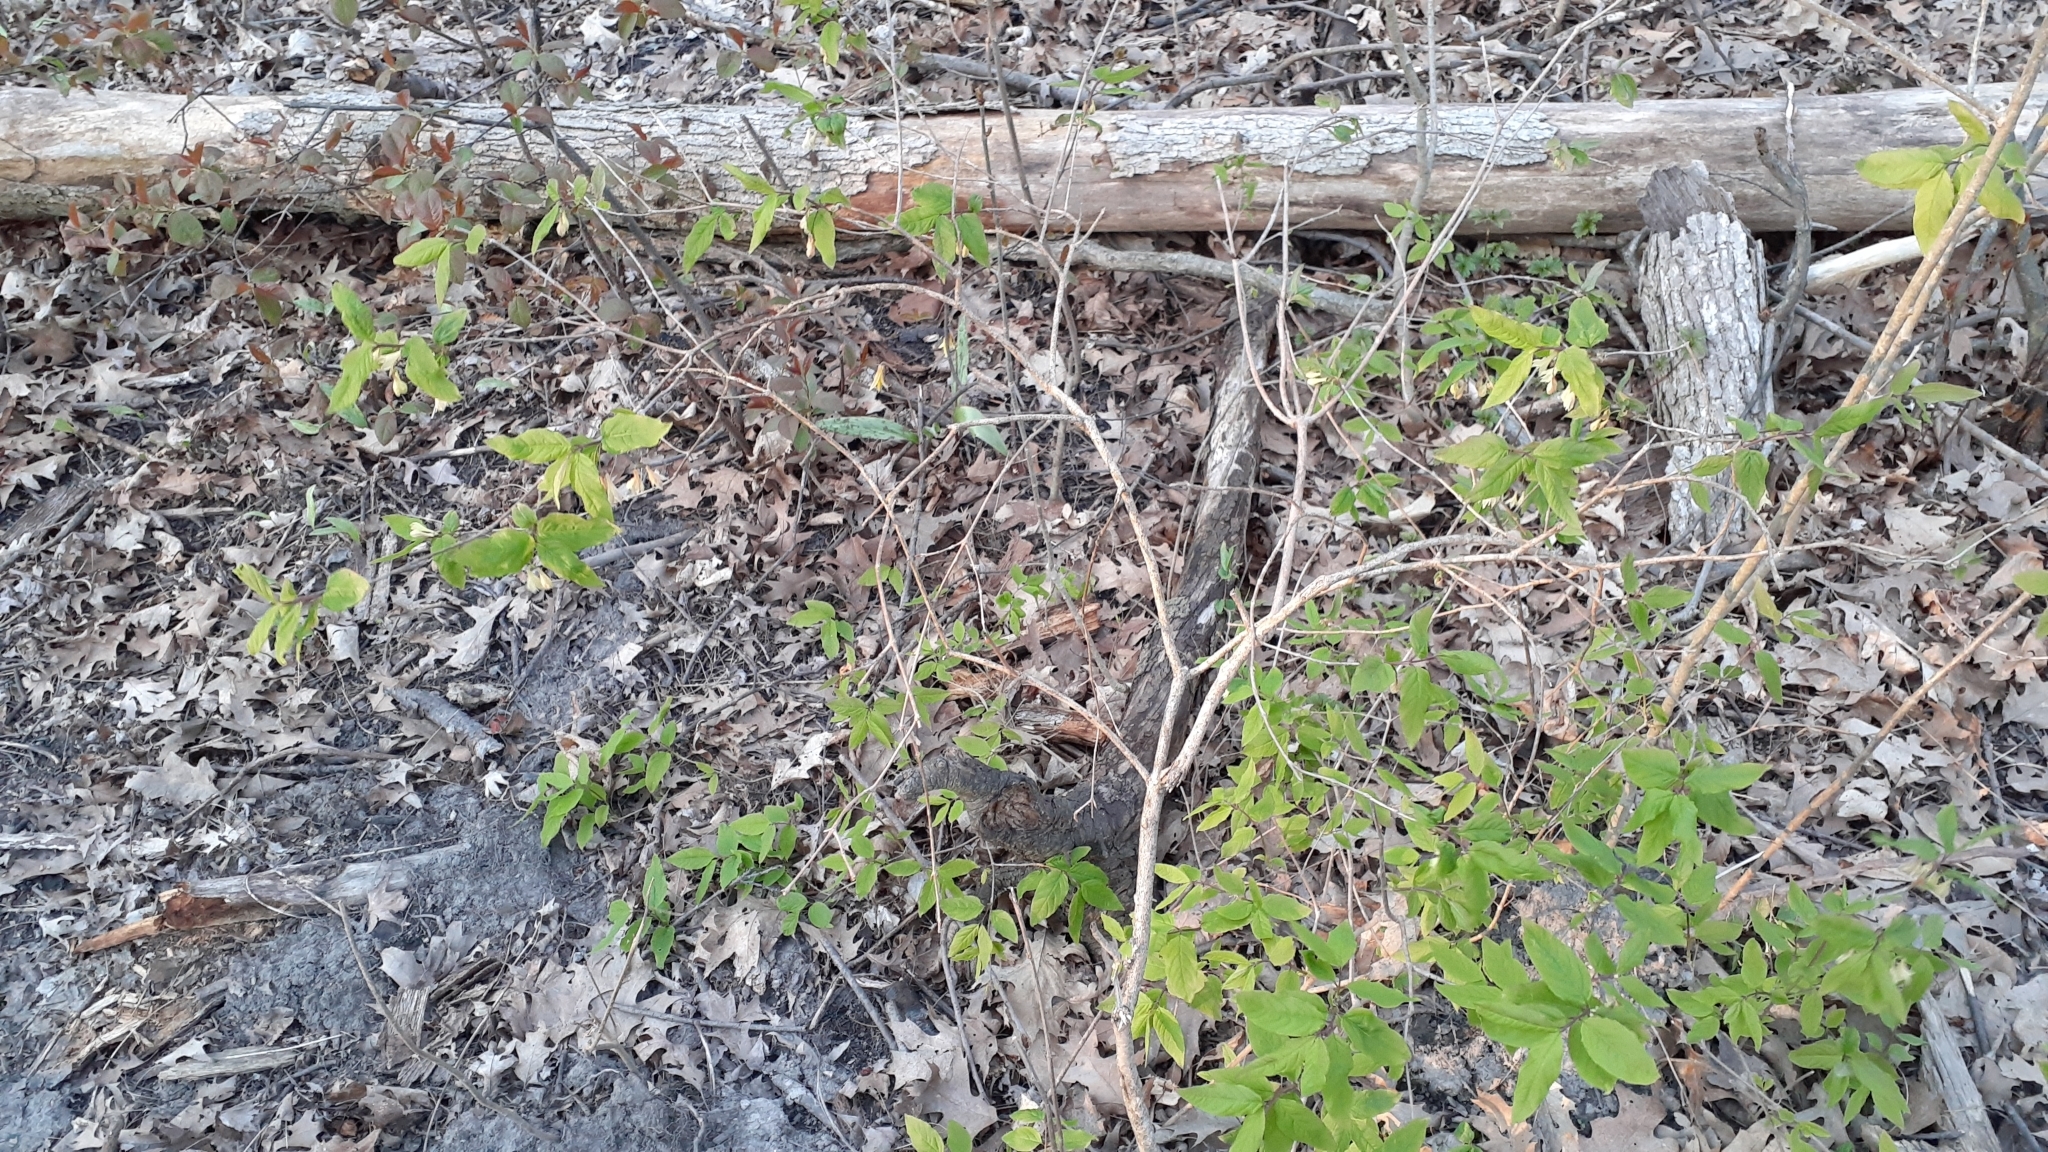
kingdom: Plantae
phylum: Tracheophyta
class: Magnoliopsida
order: Dipsacales
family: Caprifoliaceae
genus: Lonicera
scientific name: Lonicera canadensis
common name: American fly-honeysuckle
